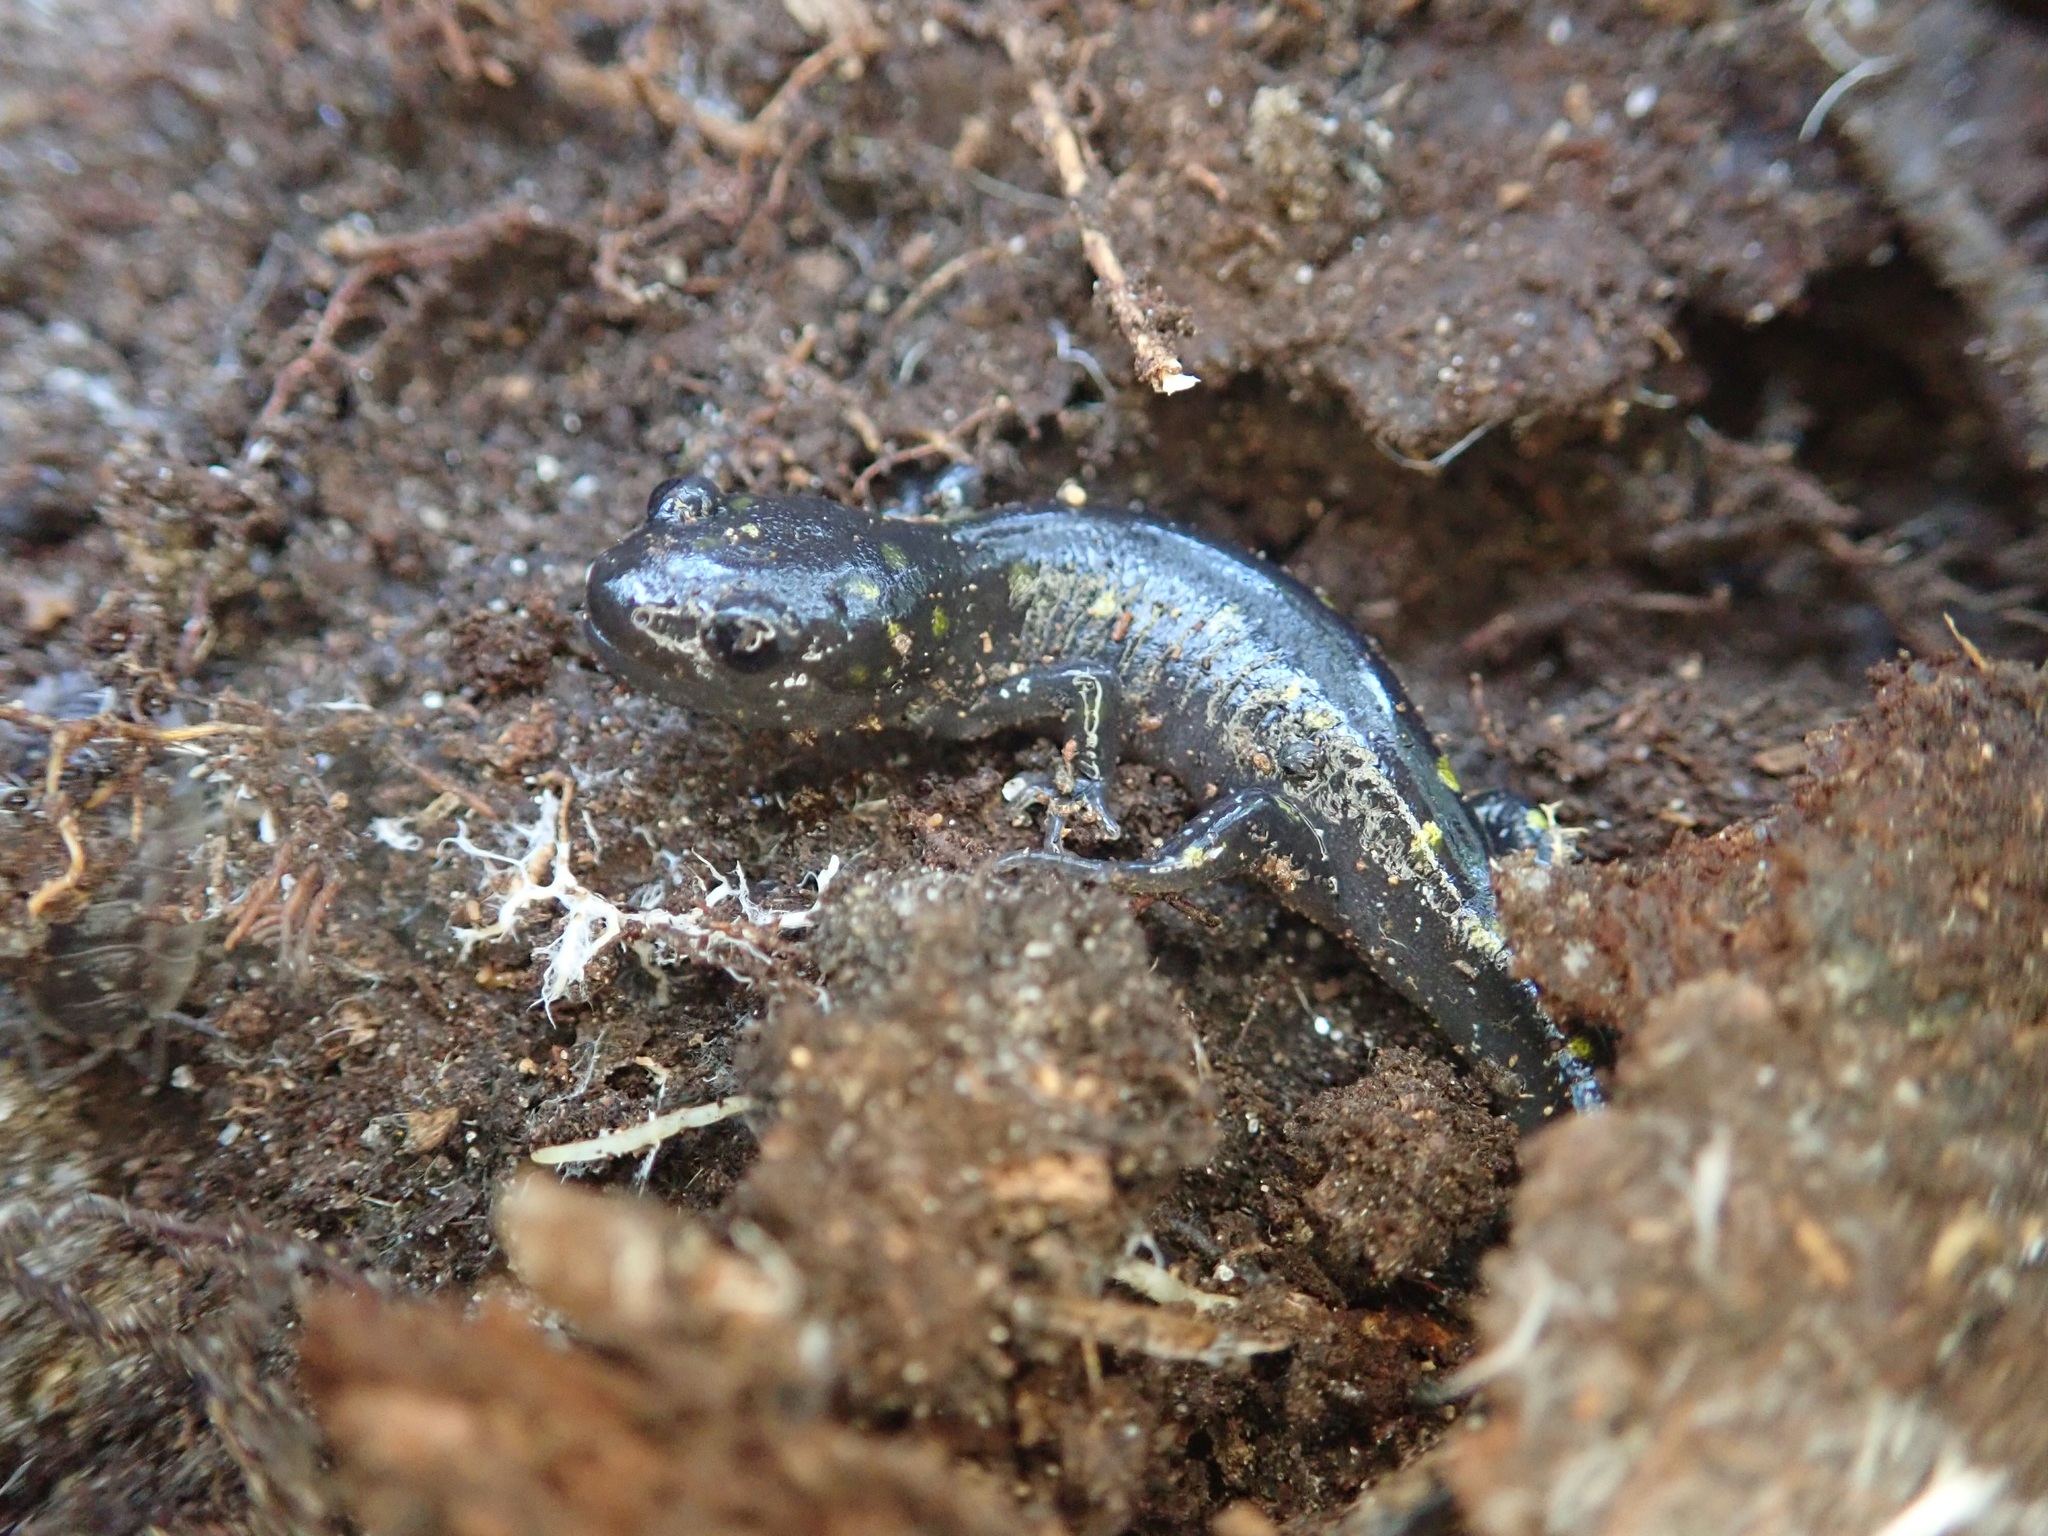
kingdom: Animalia
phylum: Chordata
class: Amphibia
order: Caudata
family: Ambystomatidae
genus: Ambystoma
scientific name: Ambystoma maculatum
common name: Spotted salamander
